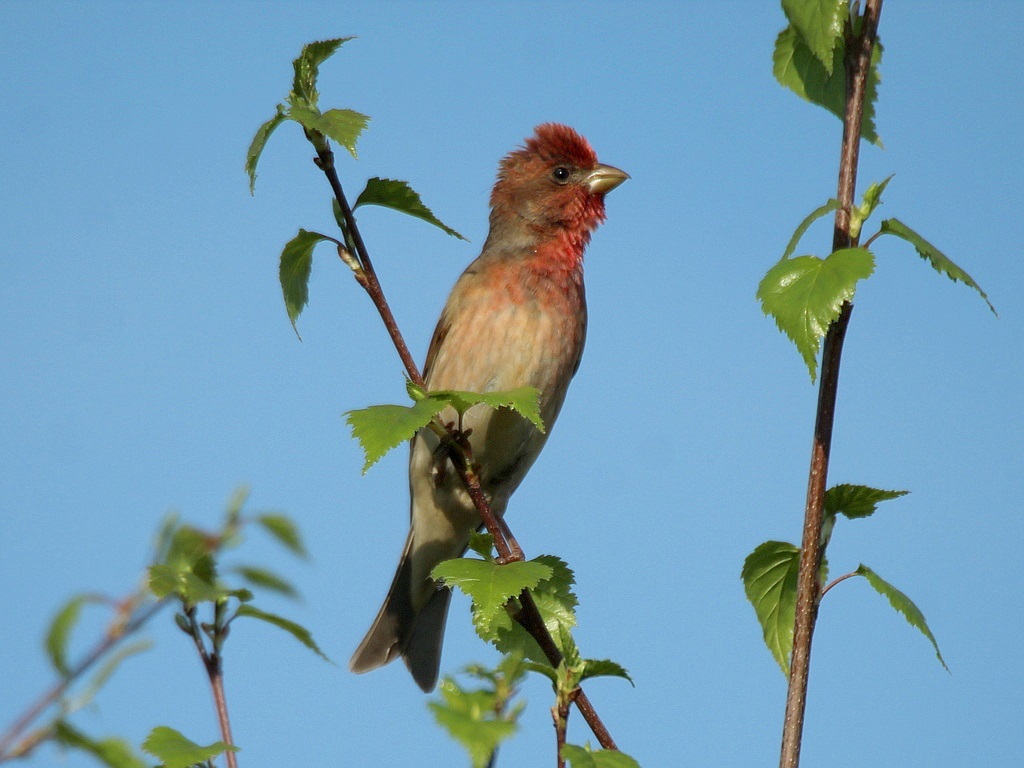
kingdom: Animalia
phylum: Chordata
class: Aves
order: Passeriformes
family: Fringillidae
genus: Carpodacus
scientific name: Carpodacus erythrinus
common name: Common rosefinch
